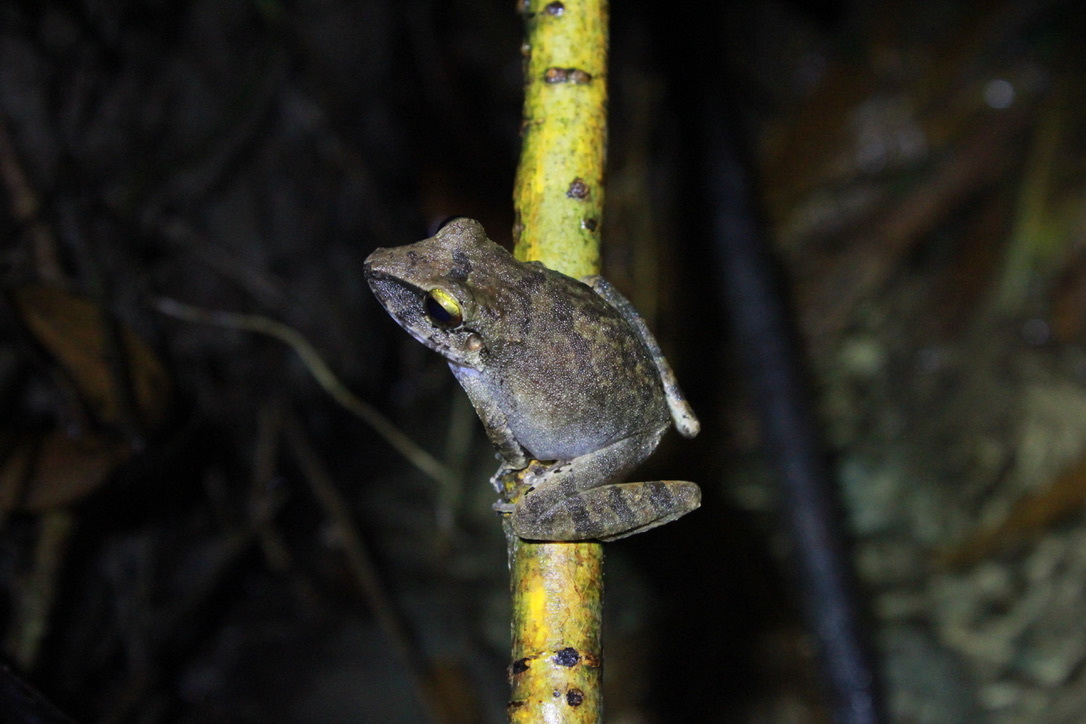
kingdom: Animalia
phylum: Chordata
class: Amphibia
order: Anura
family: Craugastoridae
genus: Pristimantis
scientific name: Pristimantis charlottevillensis
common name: Charlotteville leaf-litter frog
